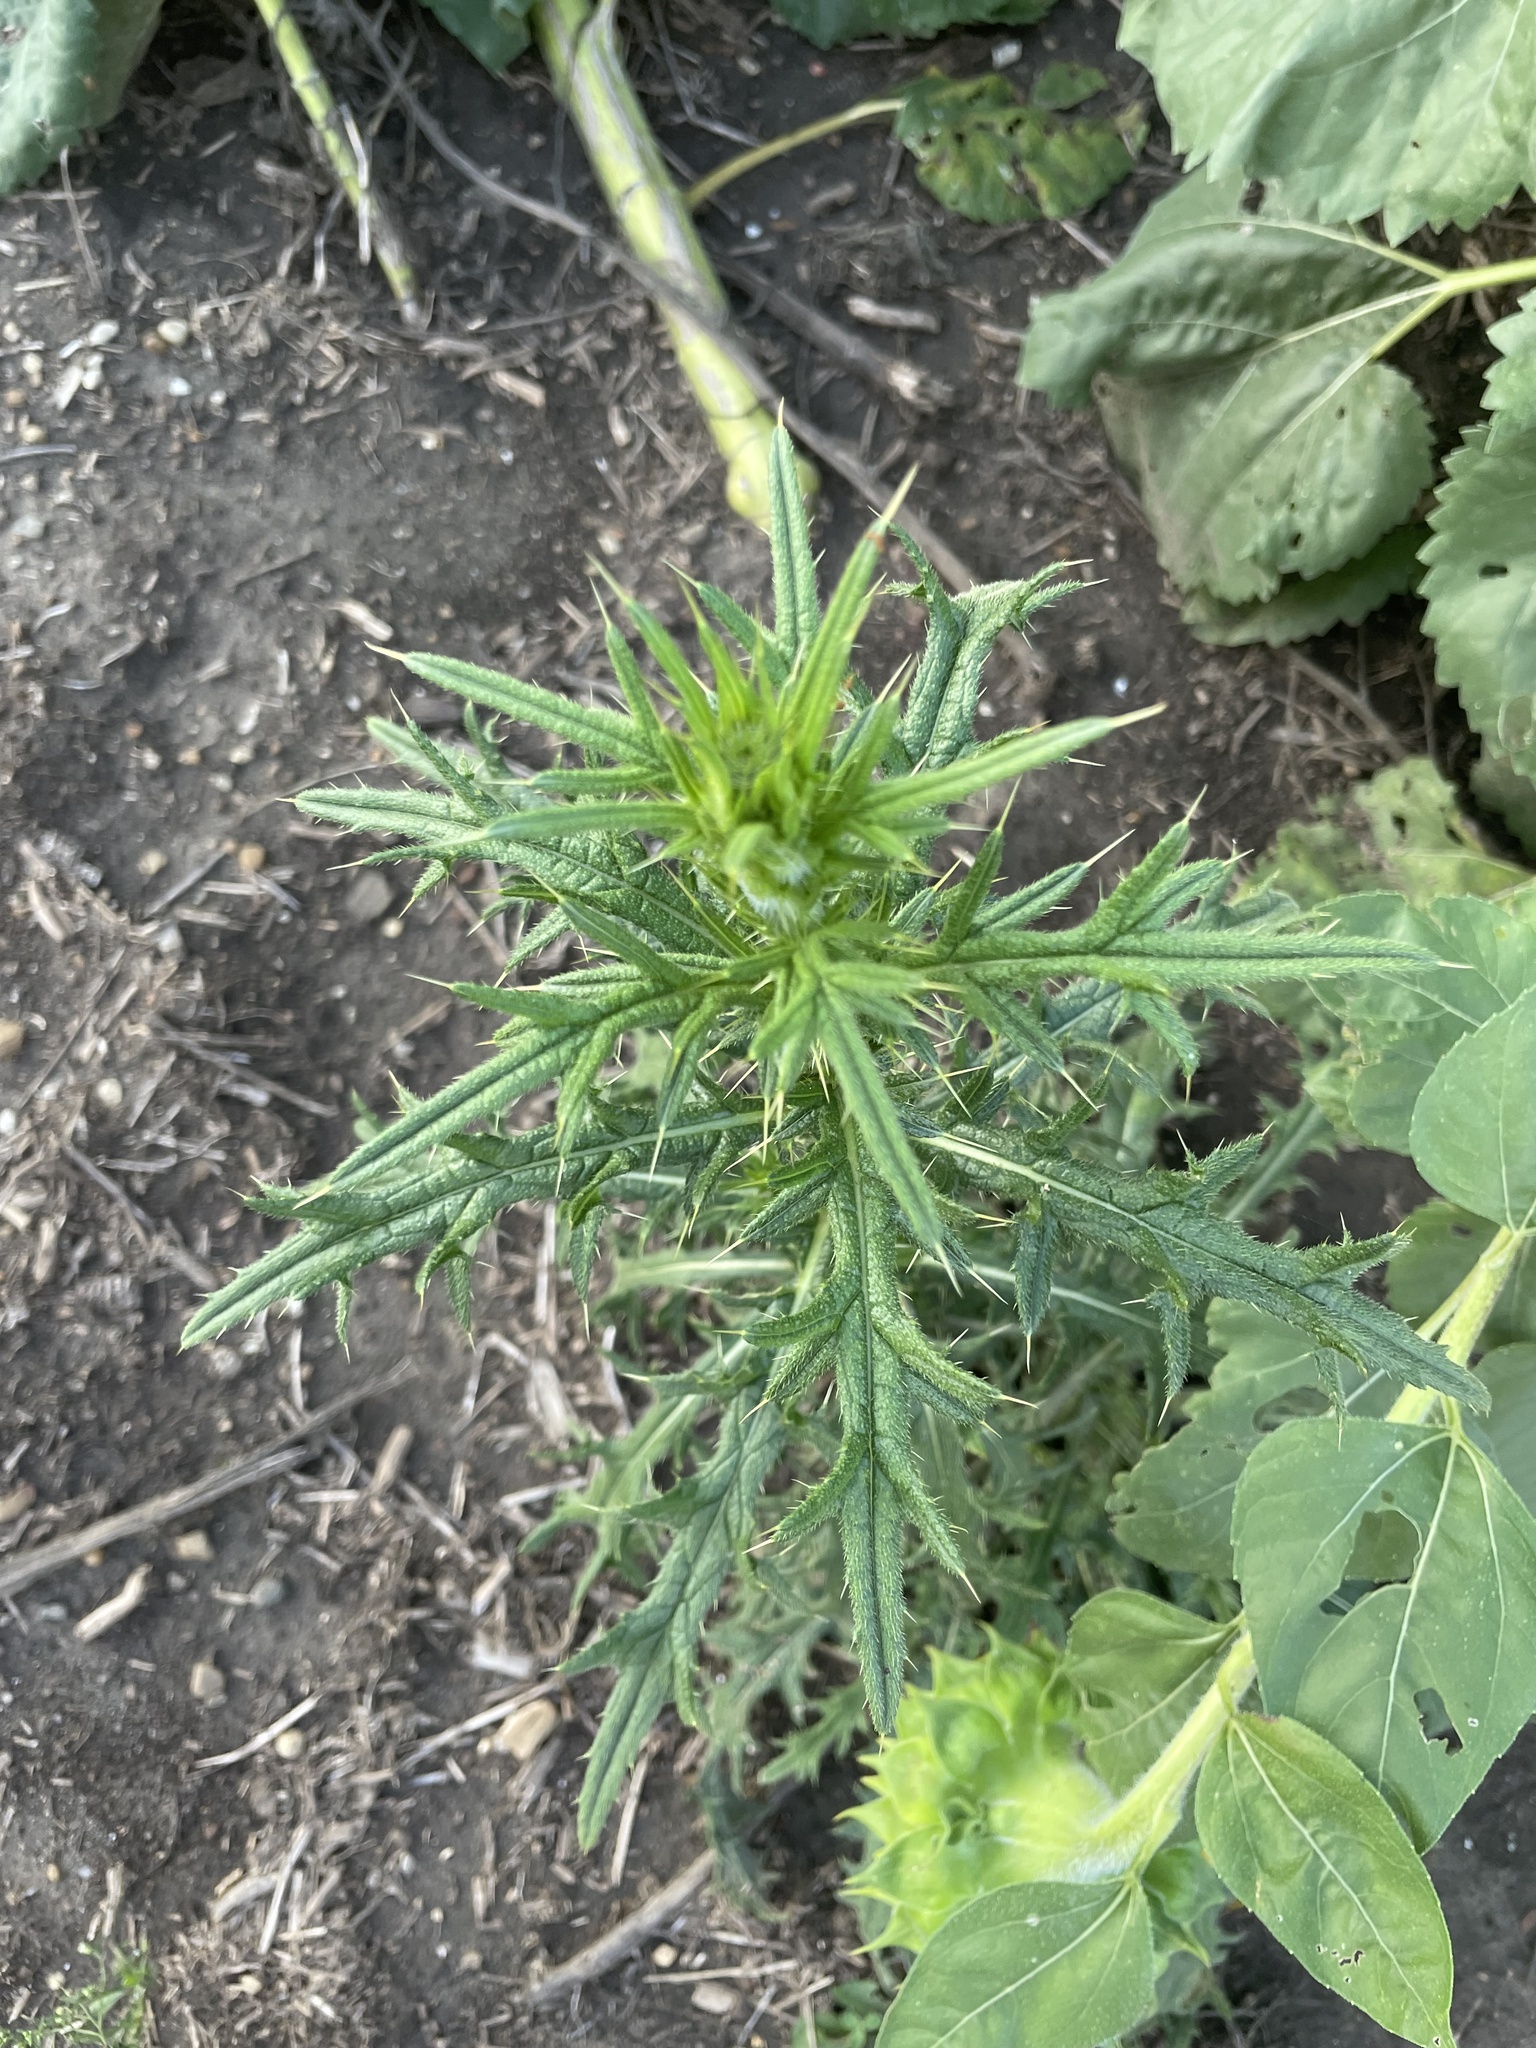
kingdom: Plantae
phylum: Tracheophyta
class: Magnoliopsida
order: Asterales
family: Asteraceae
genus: Cirsium
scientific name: Cirsium vulgare
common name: Bull thistle
